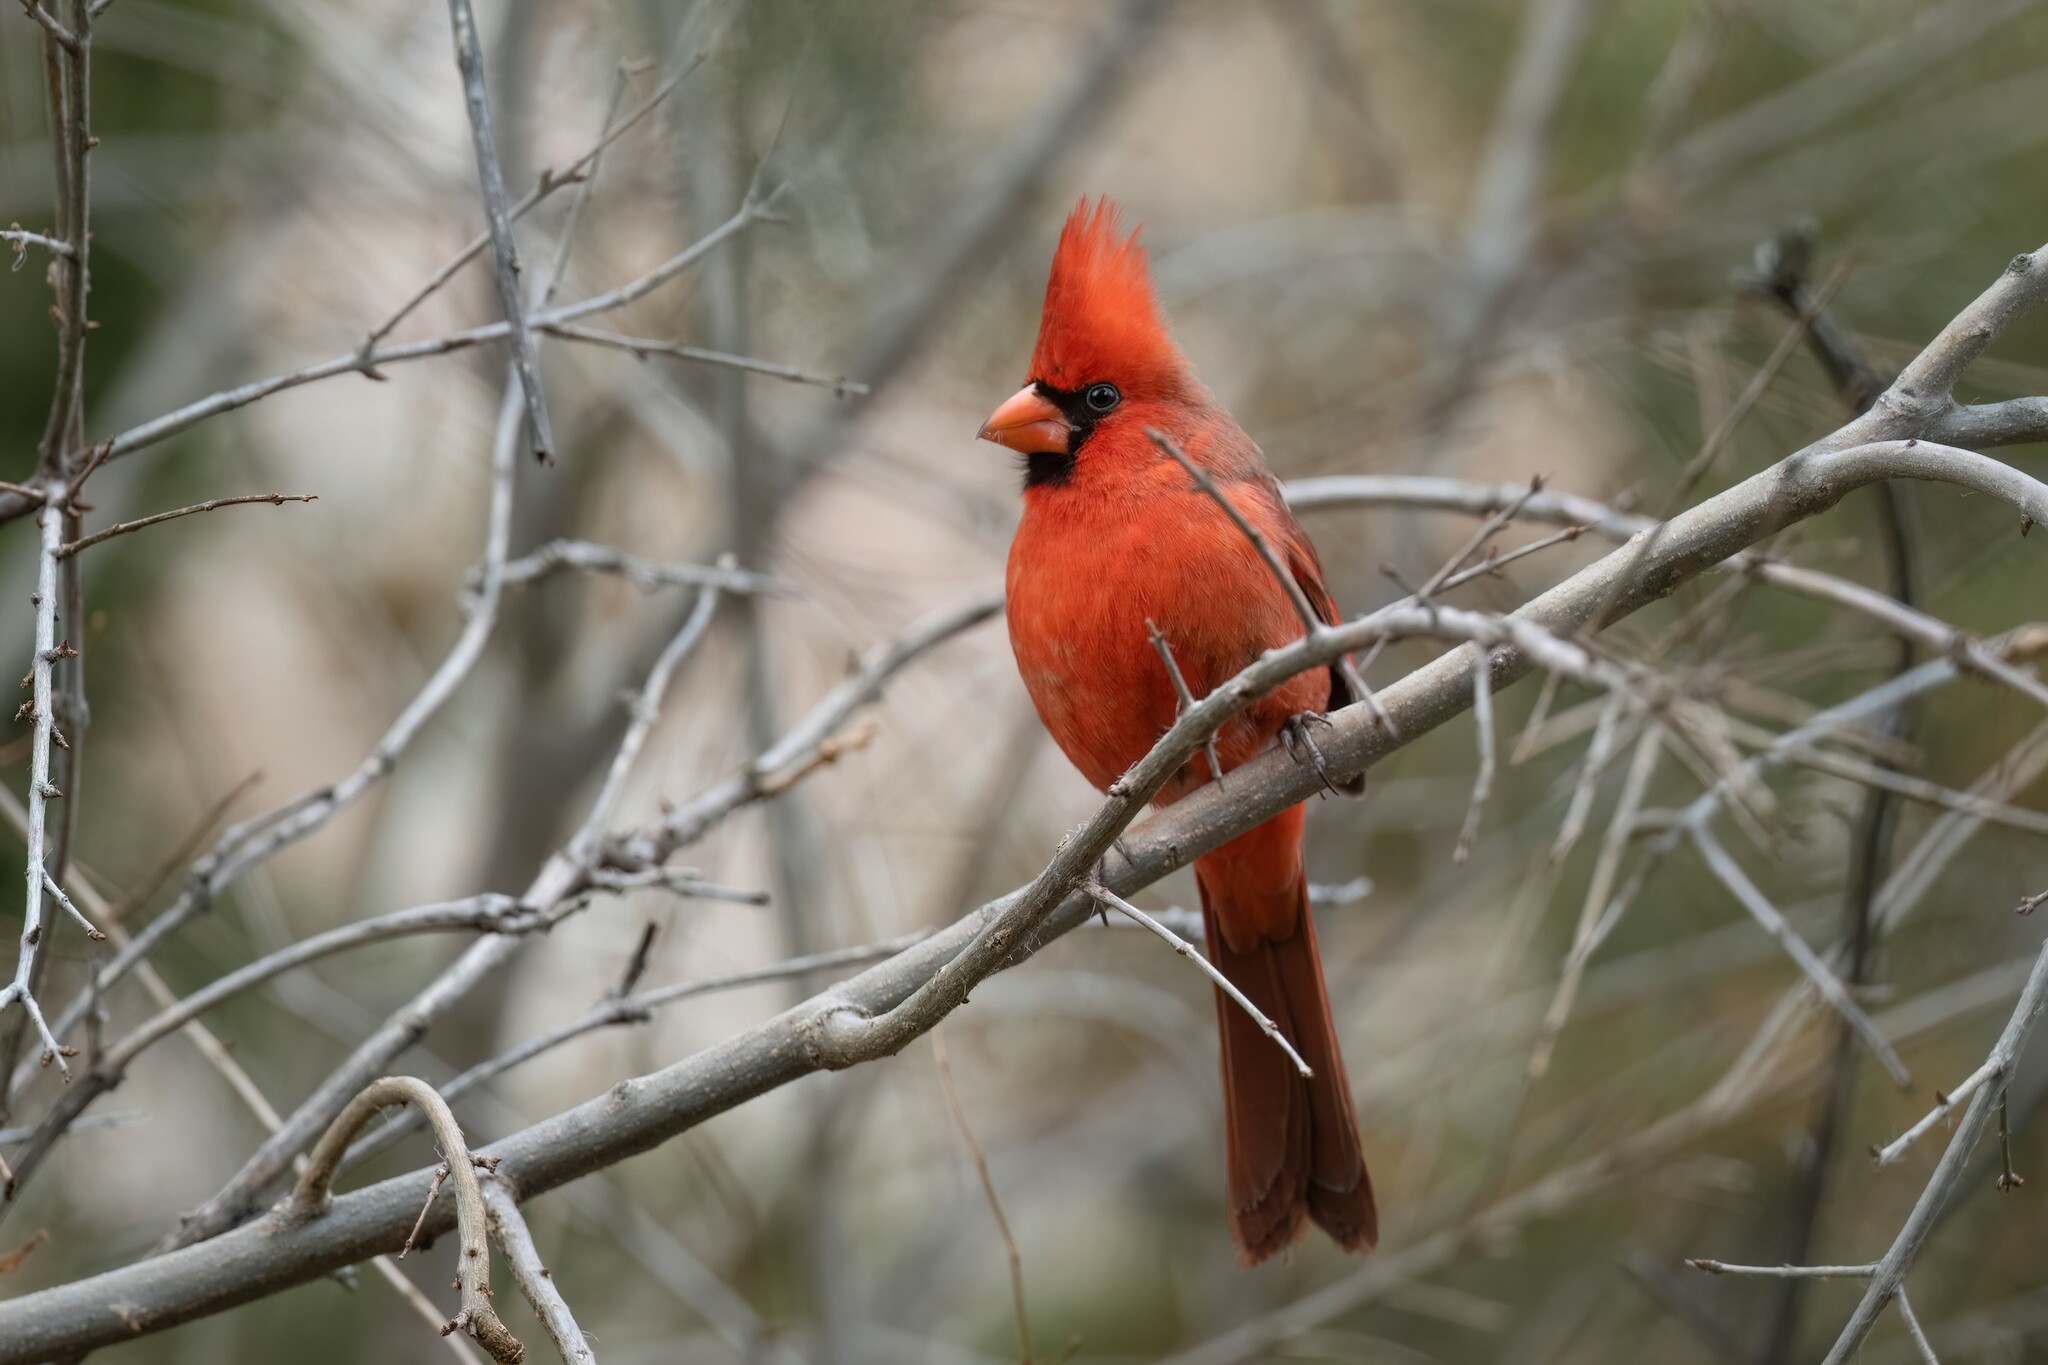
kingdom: Animalia
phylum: Chordata
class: Aves
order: Passeriformes
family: Cardinalidae
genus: Cardinalis
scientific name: Cardinalis cardinalis
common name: Northern cardinal
